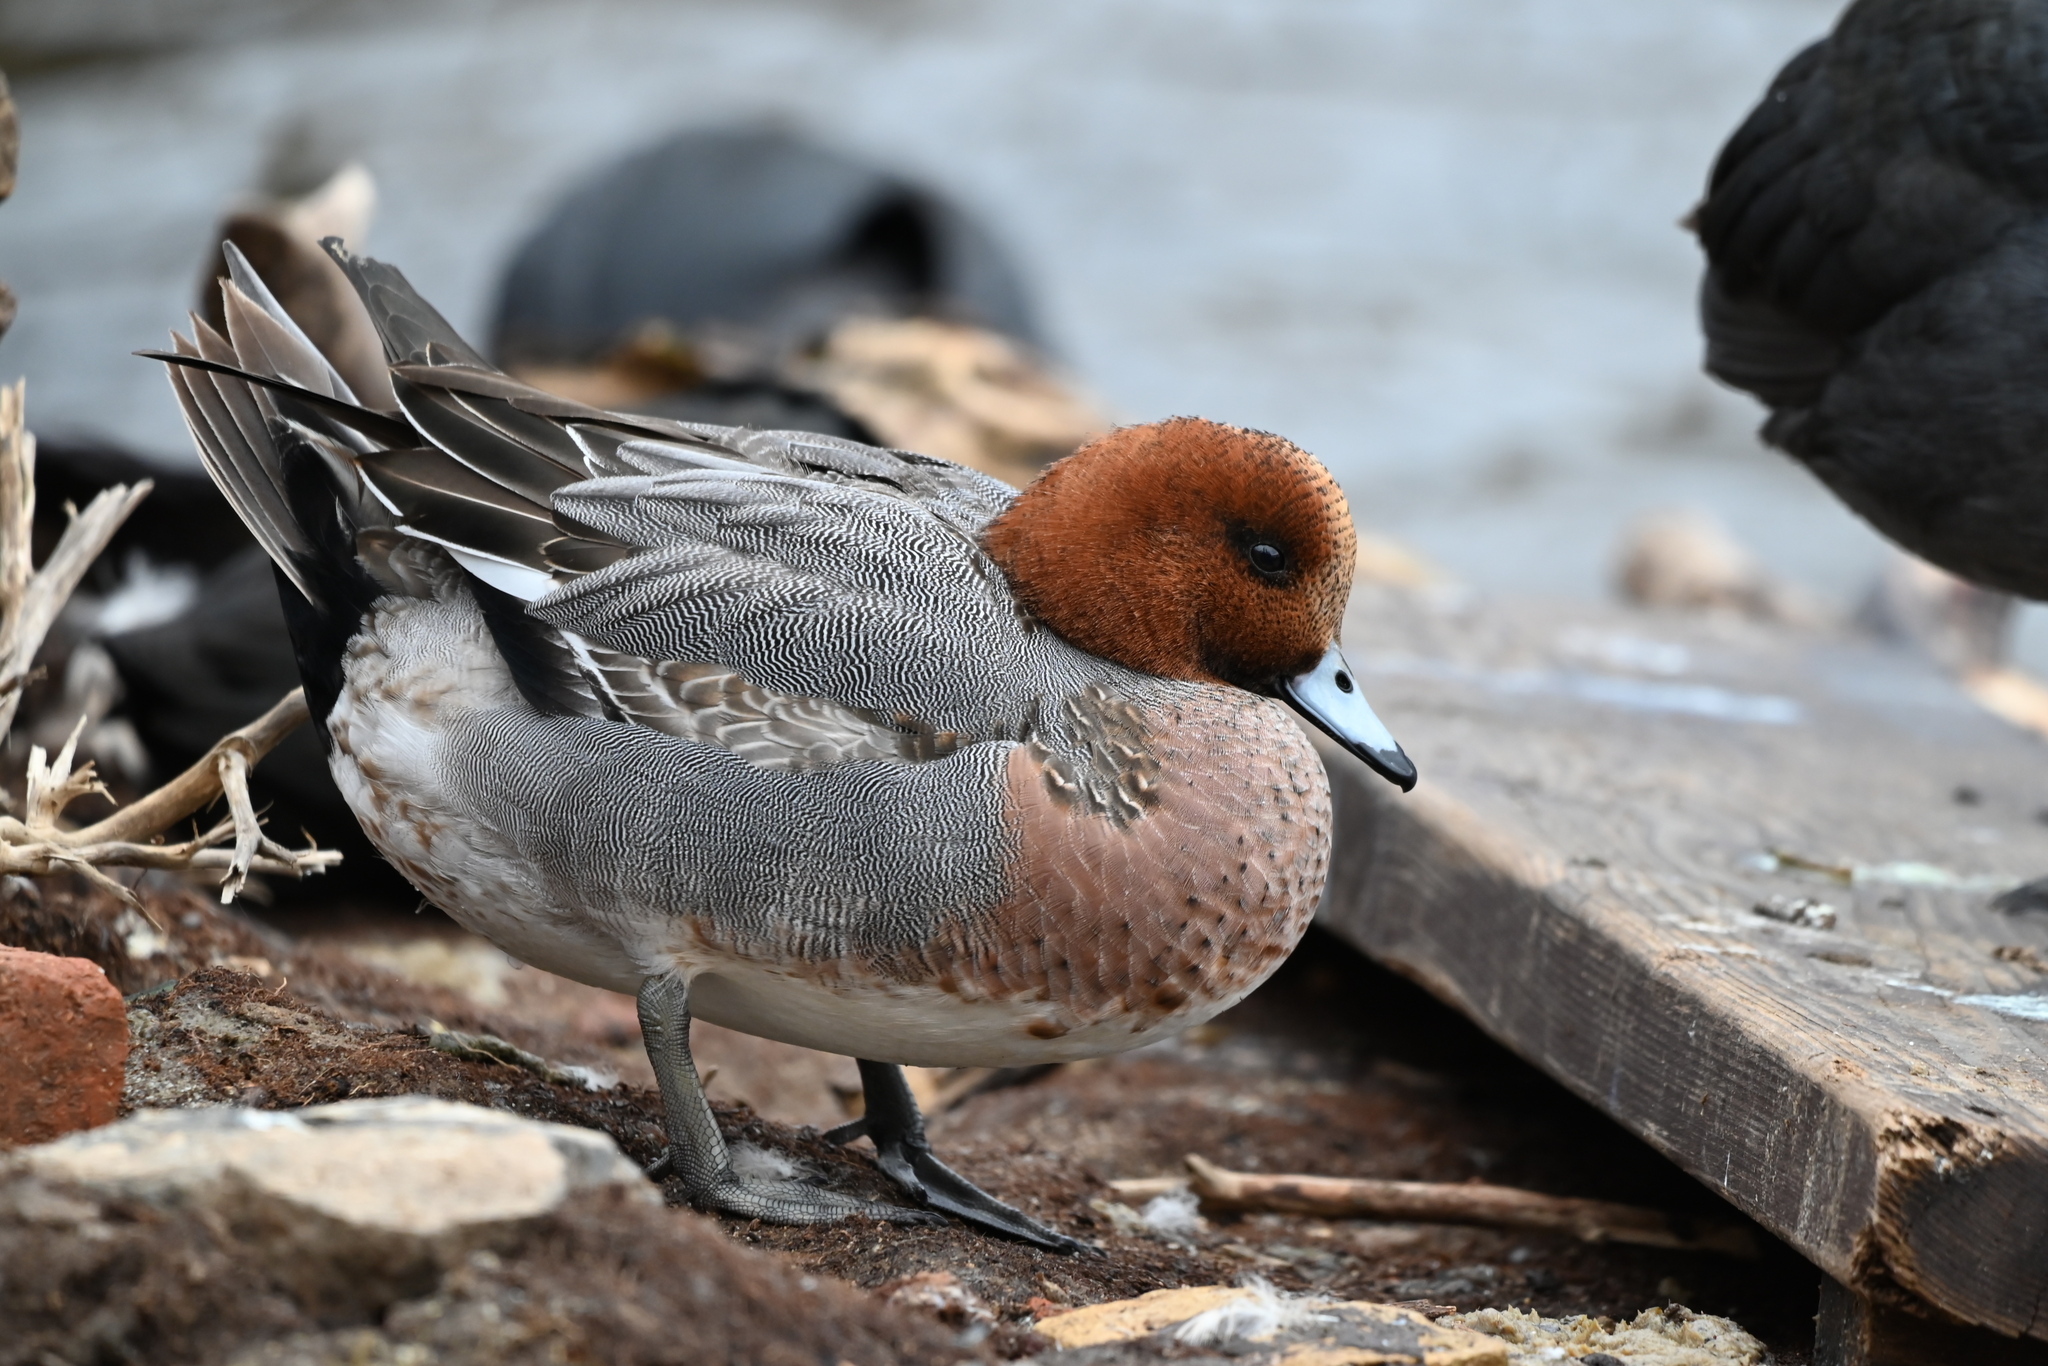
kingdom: Animalia
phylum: Chordata
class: Aves
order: Anseriformes
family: Anatidae
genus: Mareca
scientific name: Mareca penelope
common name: Eurasian wigeon
